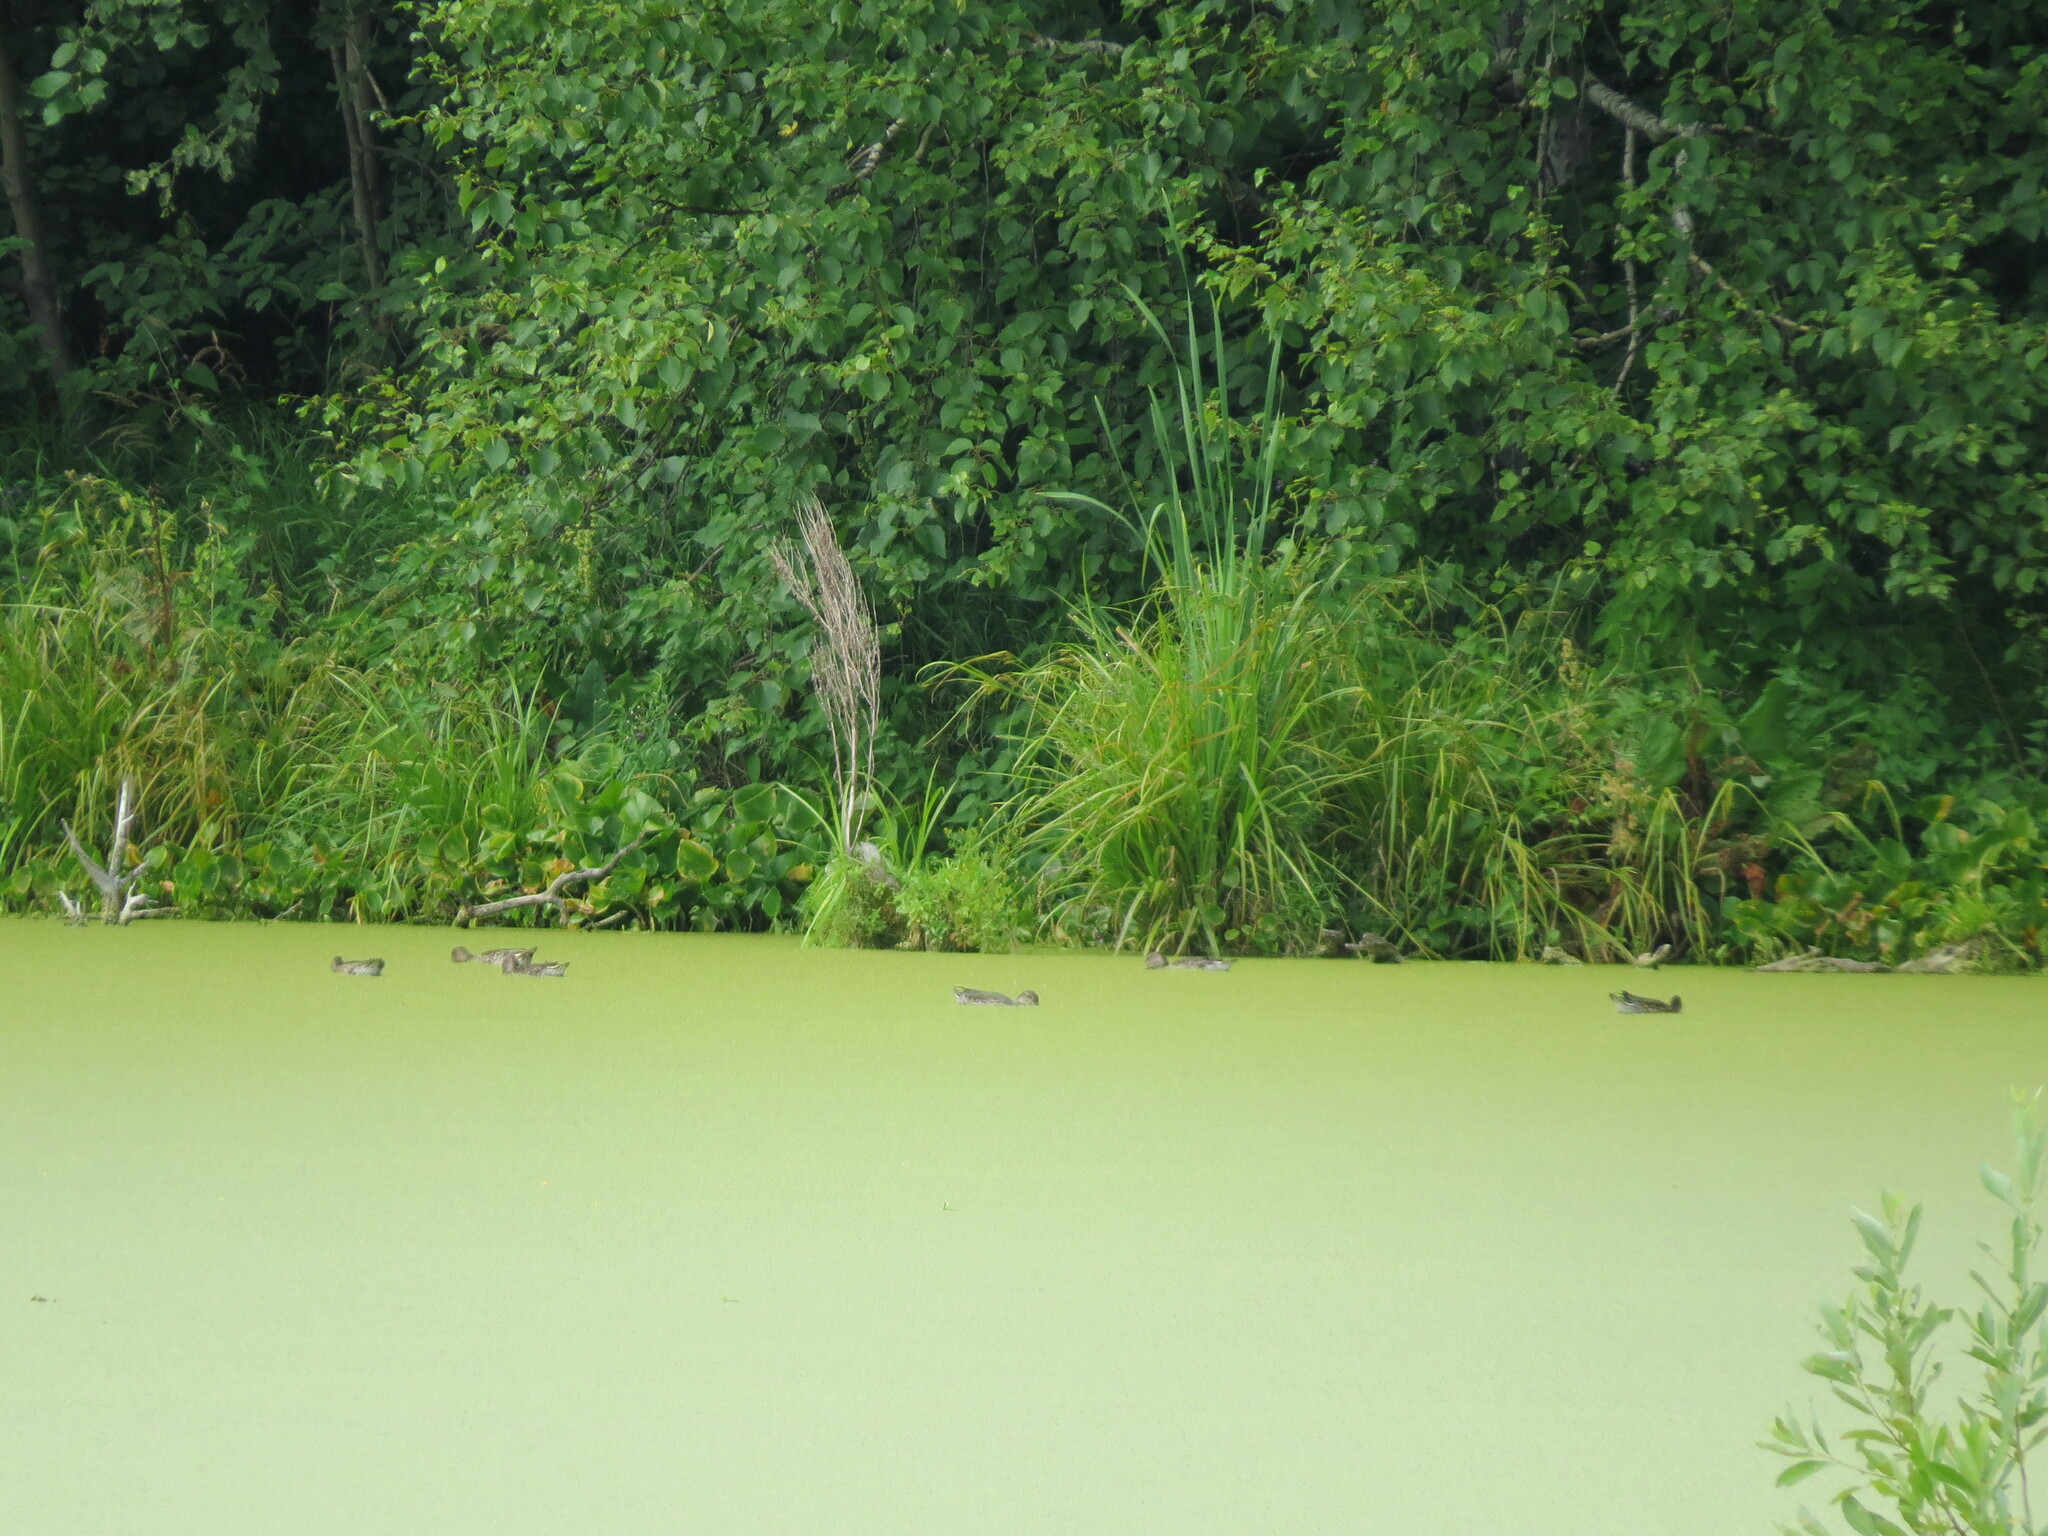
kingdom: Animalia
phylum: Chordata
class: Aves
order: Anseriformes
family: Anatidae
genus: Anas
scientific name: Anas crecca
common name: Eurasian teal
